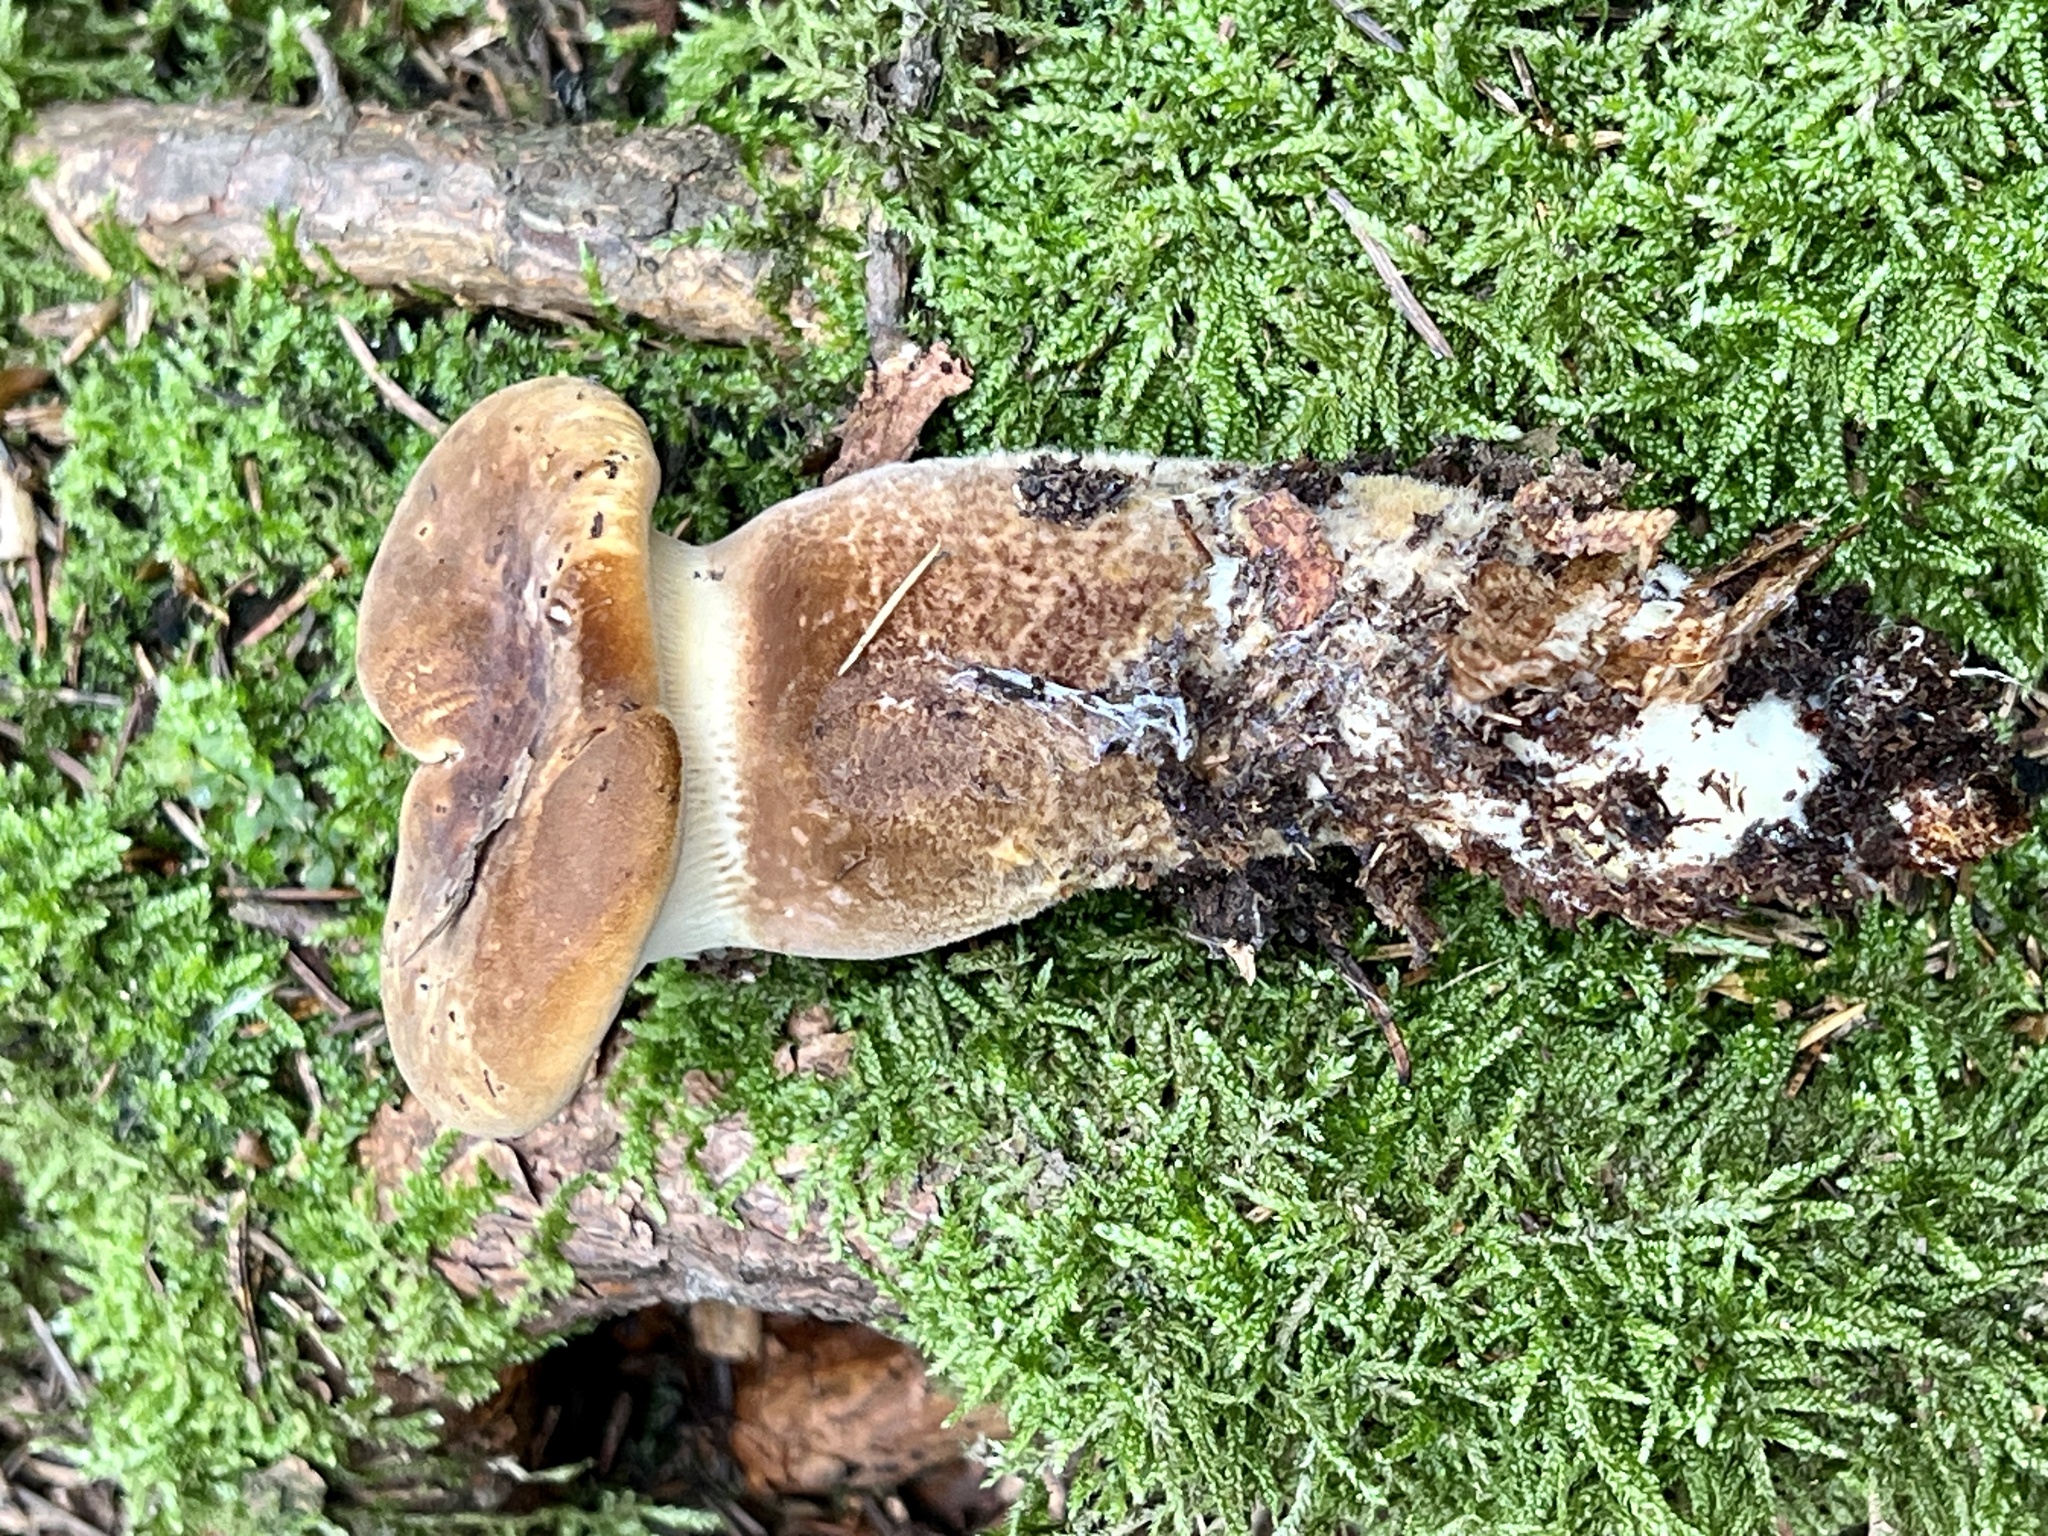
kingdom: Fungi
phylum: Basidiomycota
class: Agaricomycetes
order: Boletales
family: Tapinellaceae
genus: Tapinella
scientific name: Tapinella atrotomentosa
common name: Velvet rollrim
